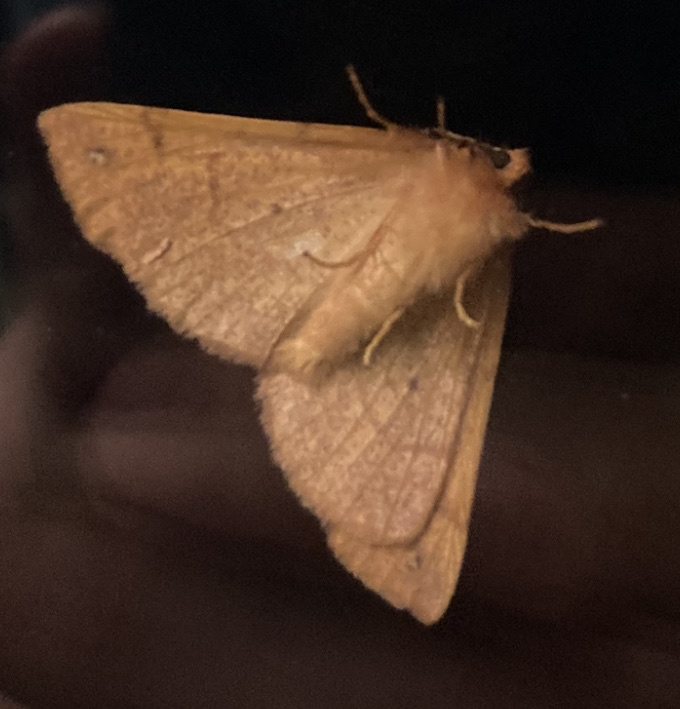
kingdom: Animalia
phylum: Arthropoda
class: Insecta
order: Lepidoptera
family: Geometridae
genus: Colotois
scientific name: Colotois pennaria
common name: Feathered thorn
